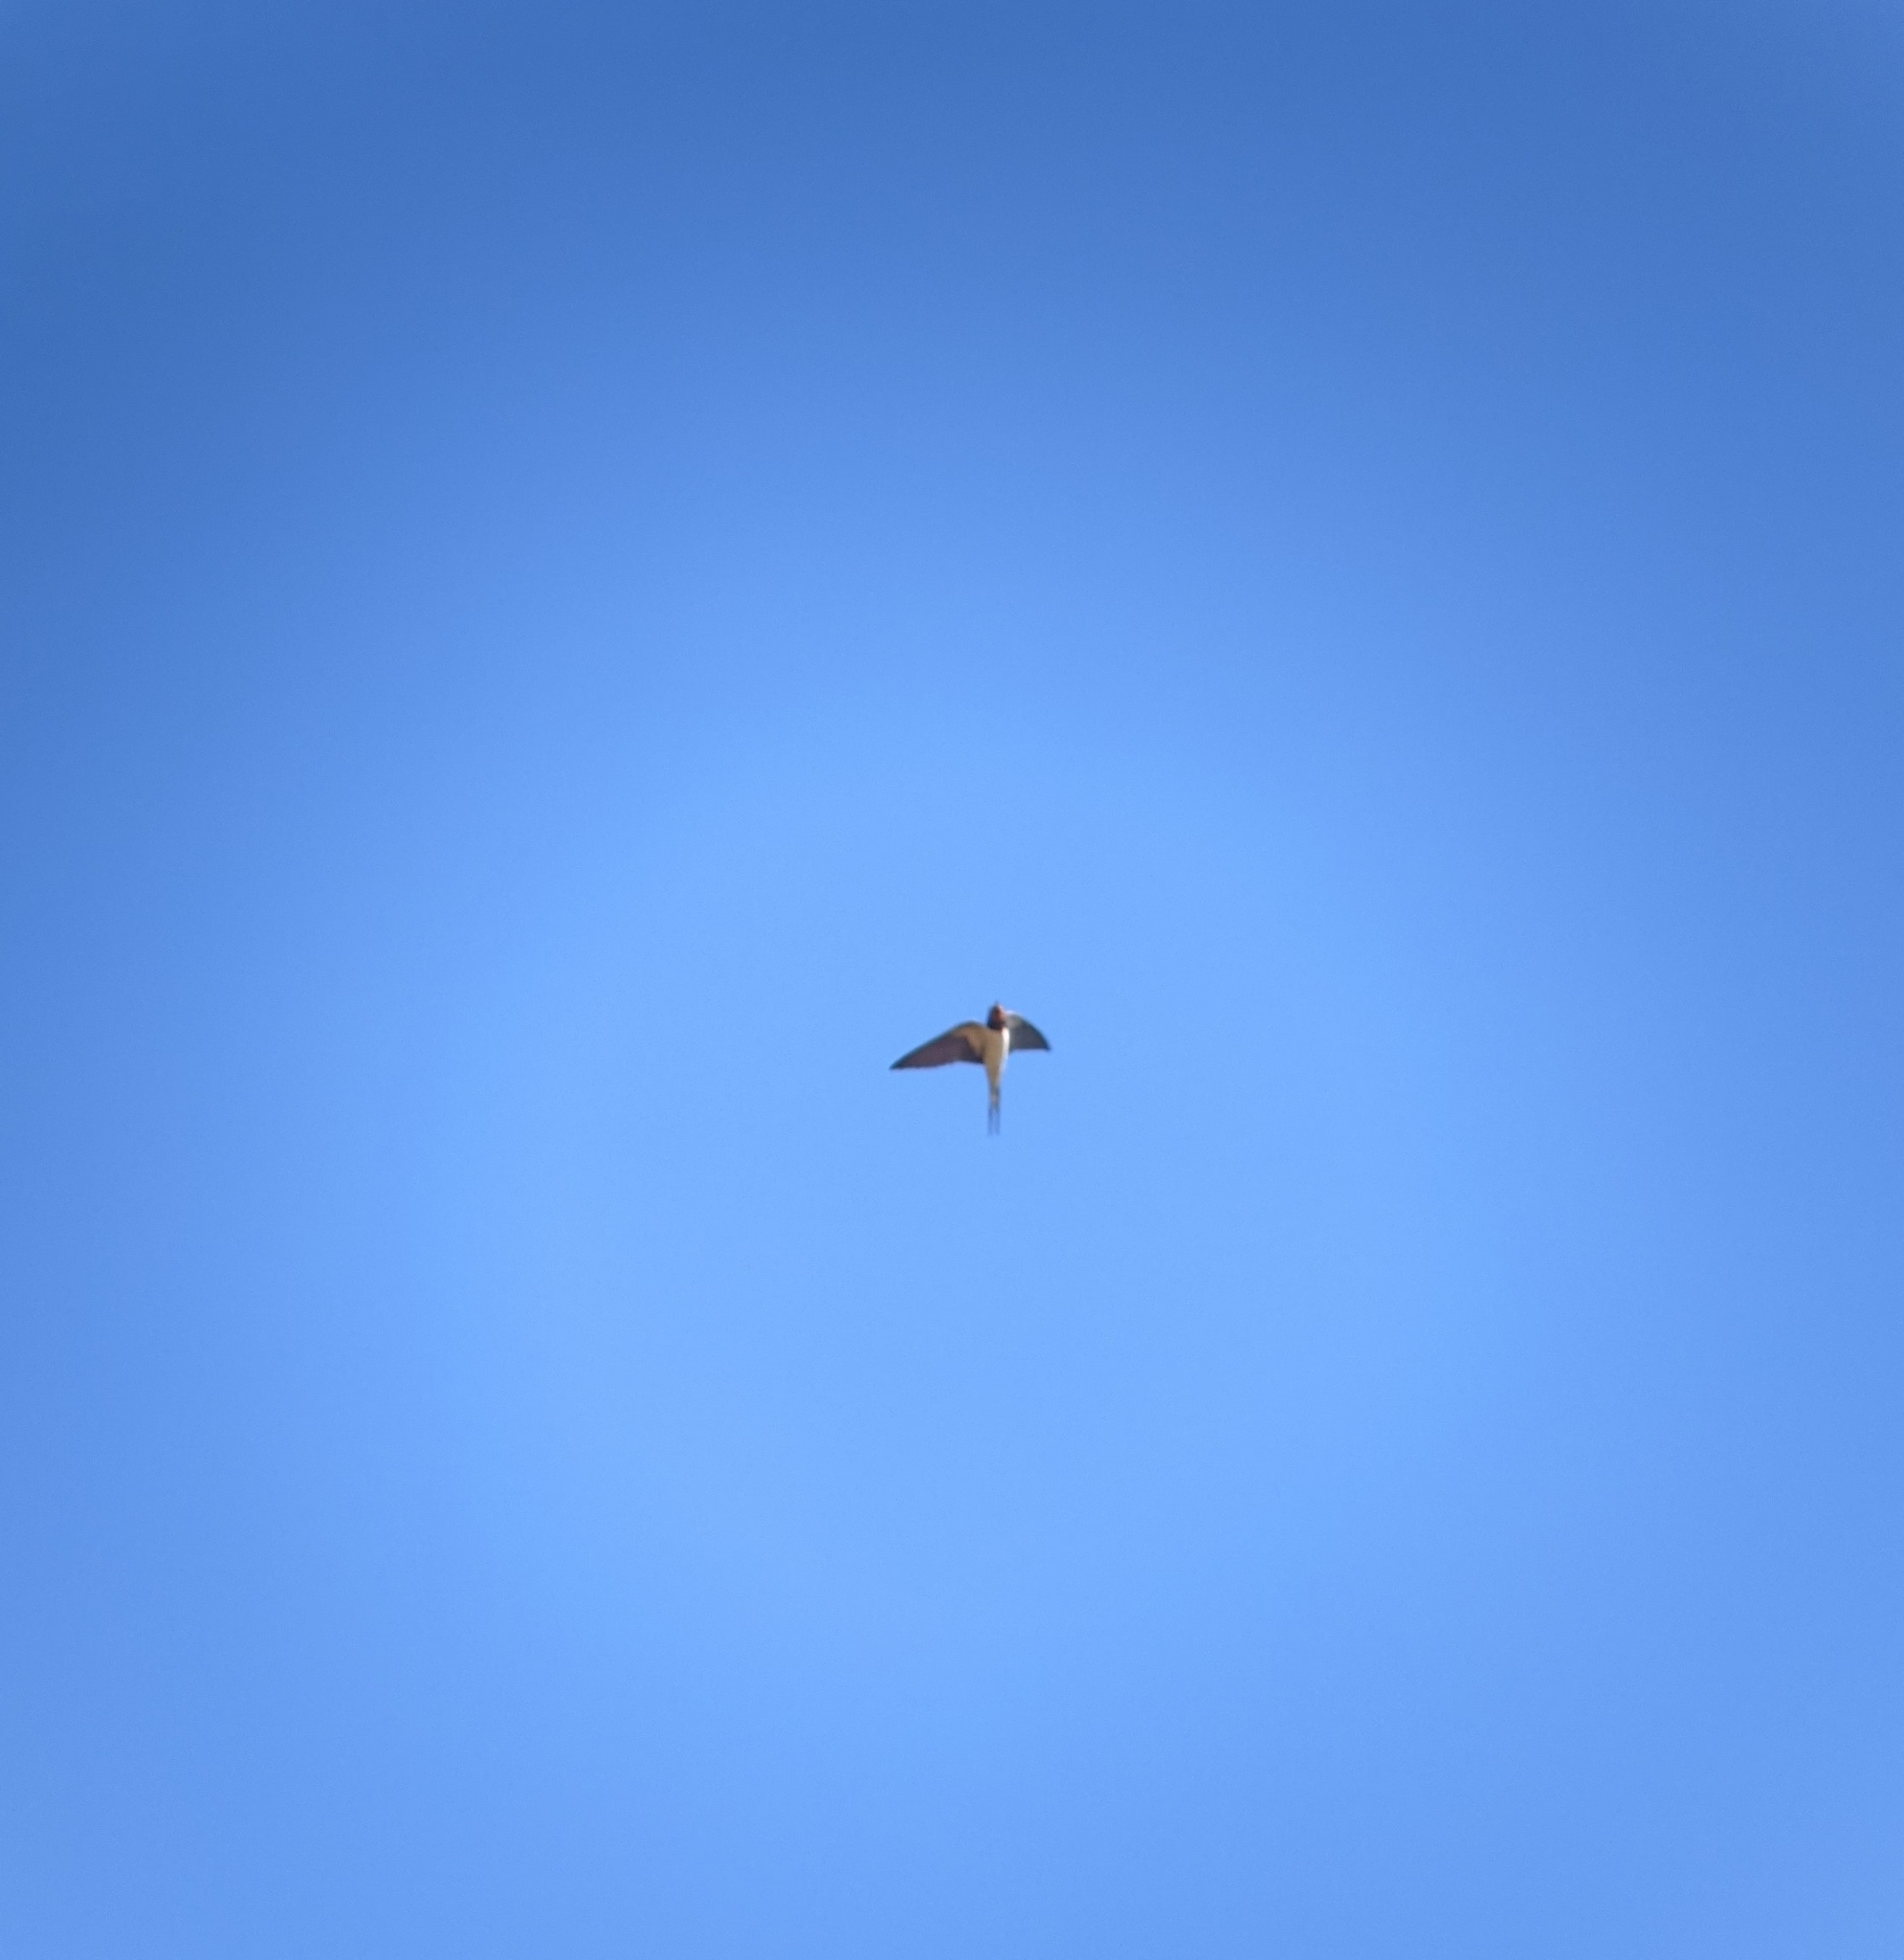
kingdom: Animalia
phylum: Chordata
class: Aves
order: Passeriformes
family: Hirundinidae
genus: Hirundo
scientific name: Hirundo rustica
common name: Barn swallow
